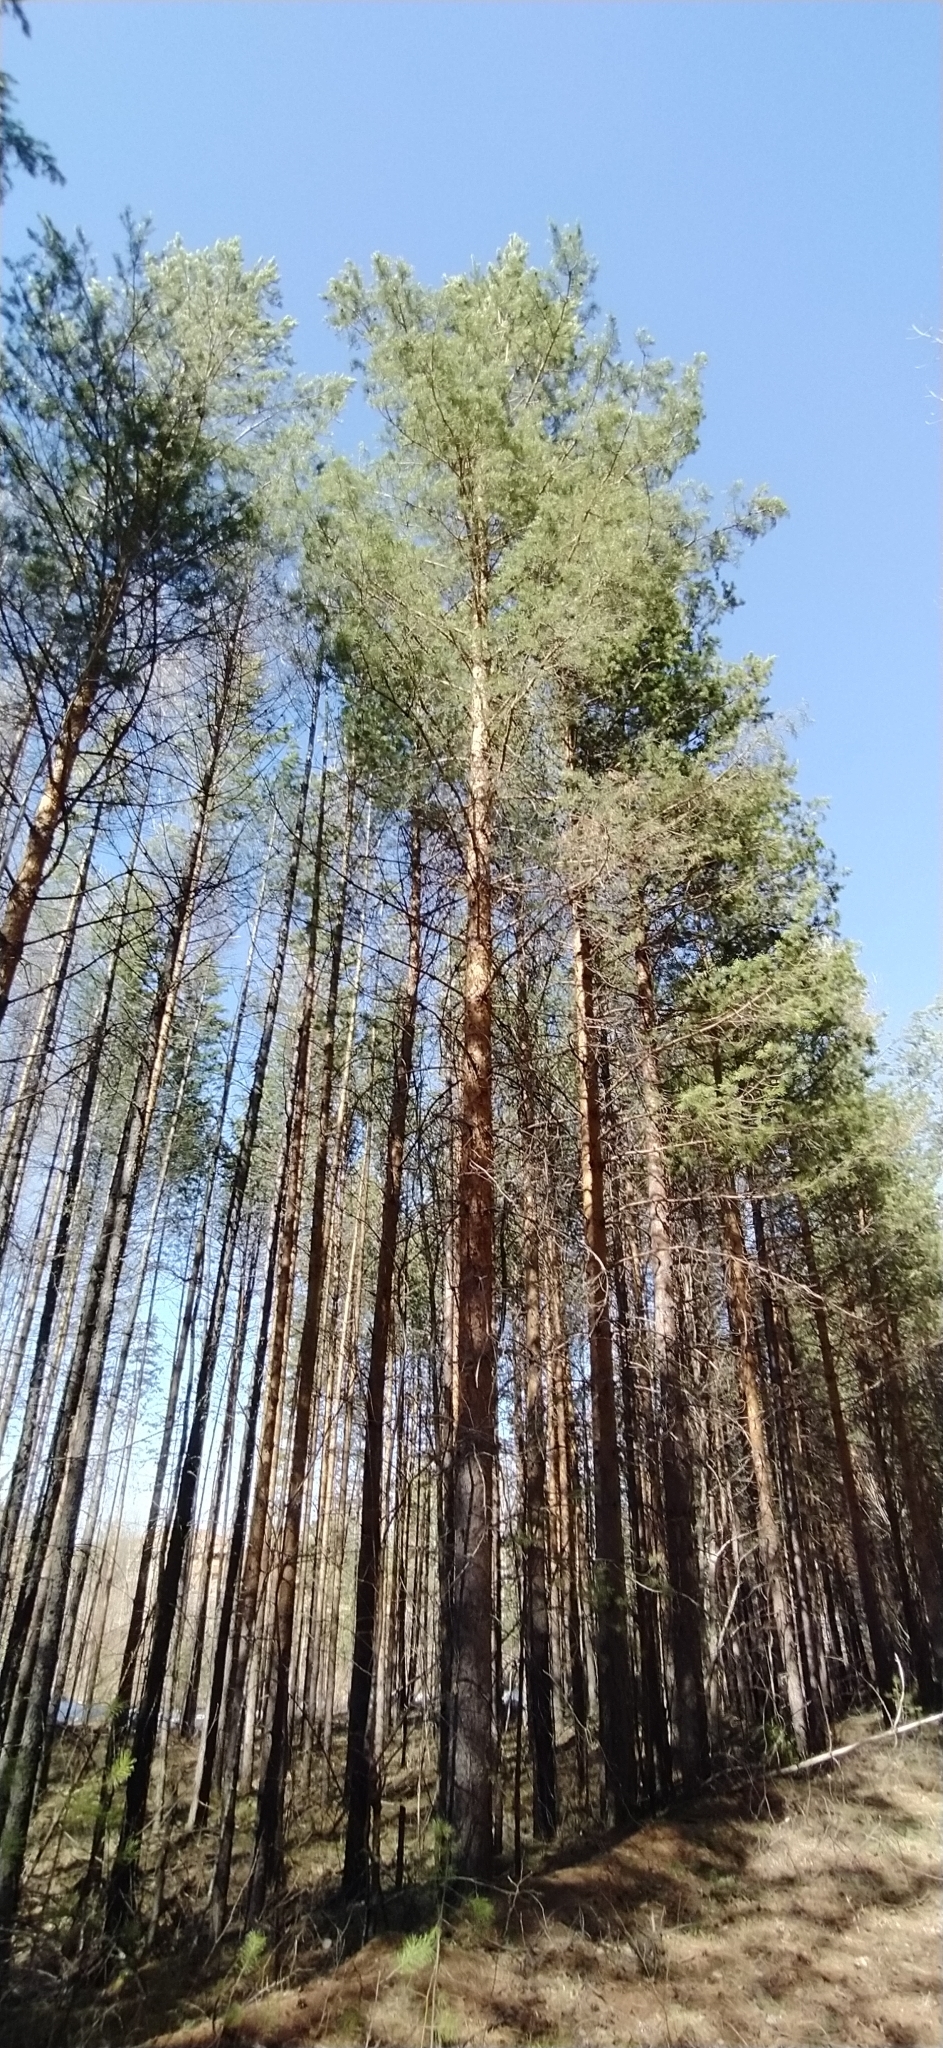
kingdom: Plantae
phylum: Tracheophyta
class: Pinopsida
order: Pinales
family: Pinaceae
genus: Pinus
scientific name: Pinus sylvestris
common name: Scots pine
